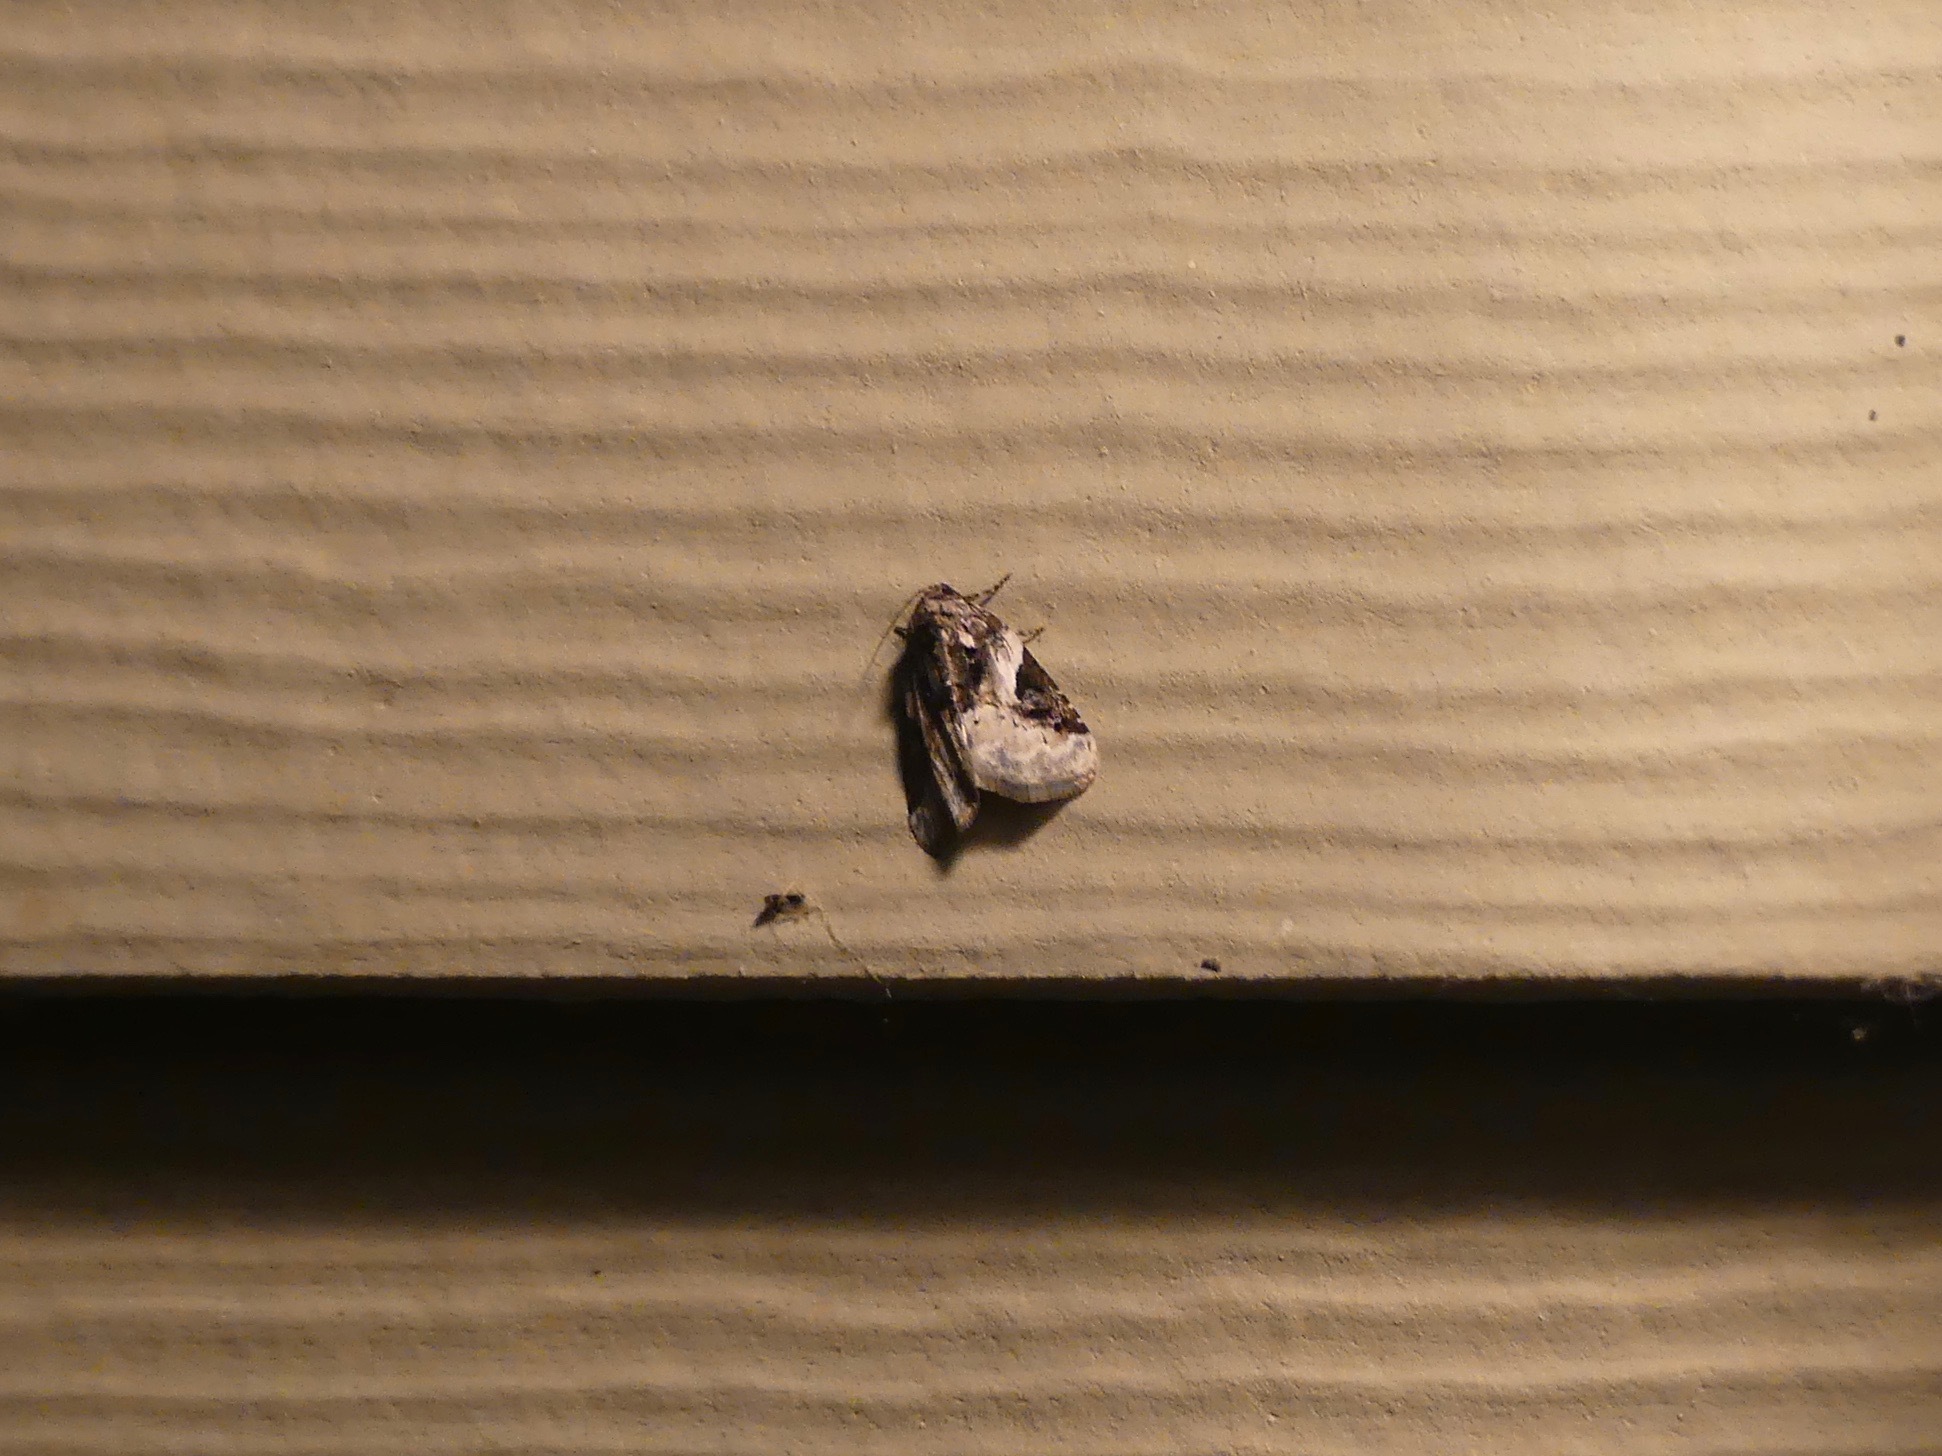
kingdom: Animalia
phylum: Arthropoda
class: Insecta
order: Lepidoptera
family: Noctuidae
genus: Pseudeustrotia
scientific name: Pseudeustrotia carneola
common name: Pink-barred lithacodia moth
